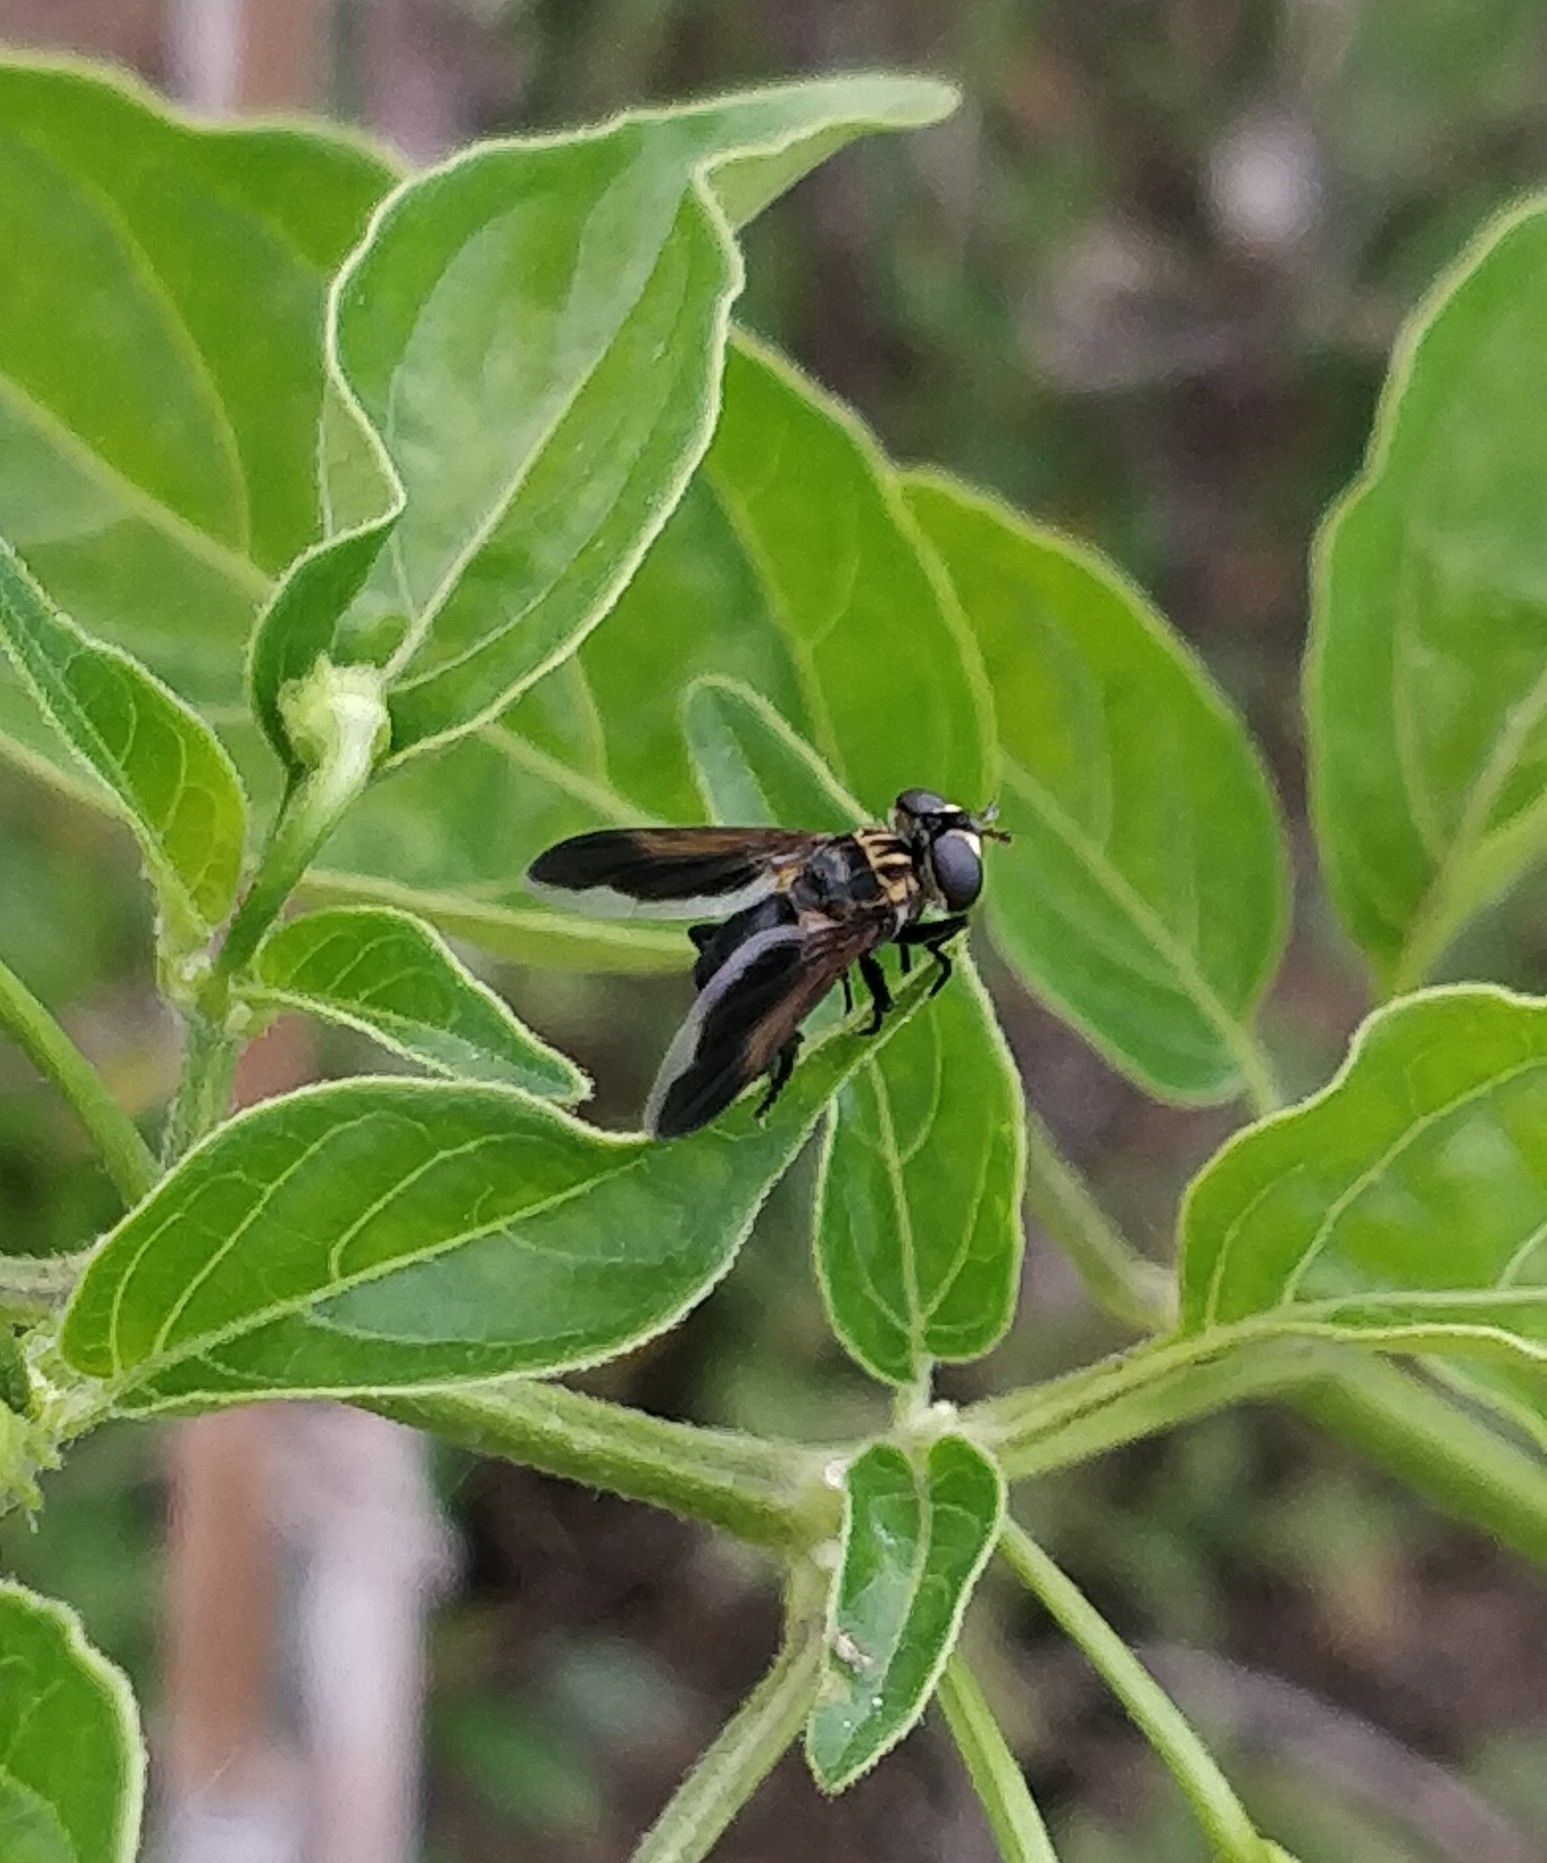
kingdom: Animalia
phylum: Arthropoda
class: Insecta
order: Diptera
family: Tachinidae
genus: Trichopoda
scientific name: Trichopoda pictipennis
